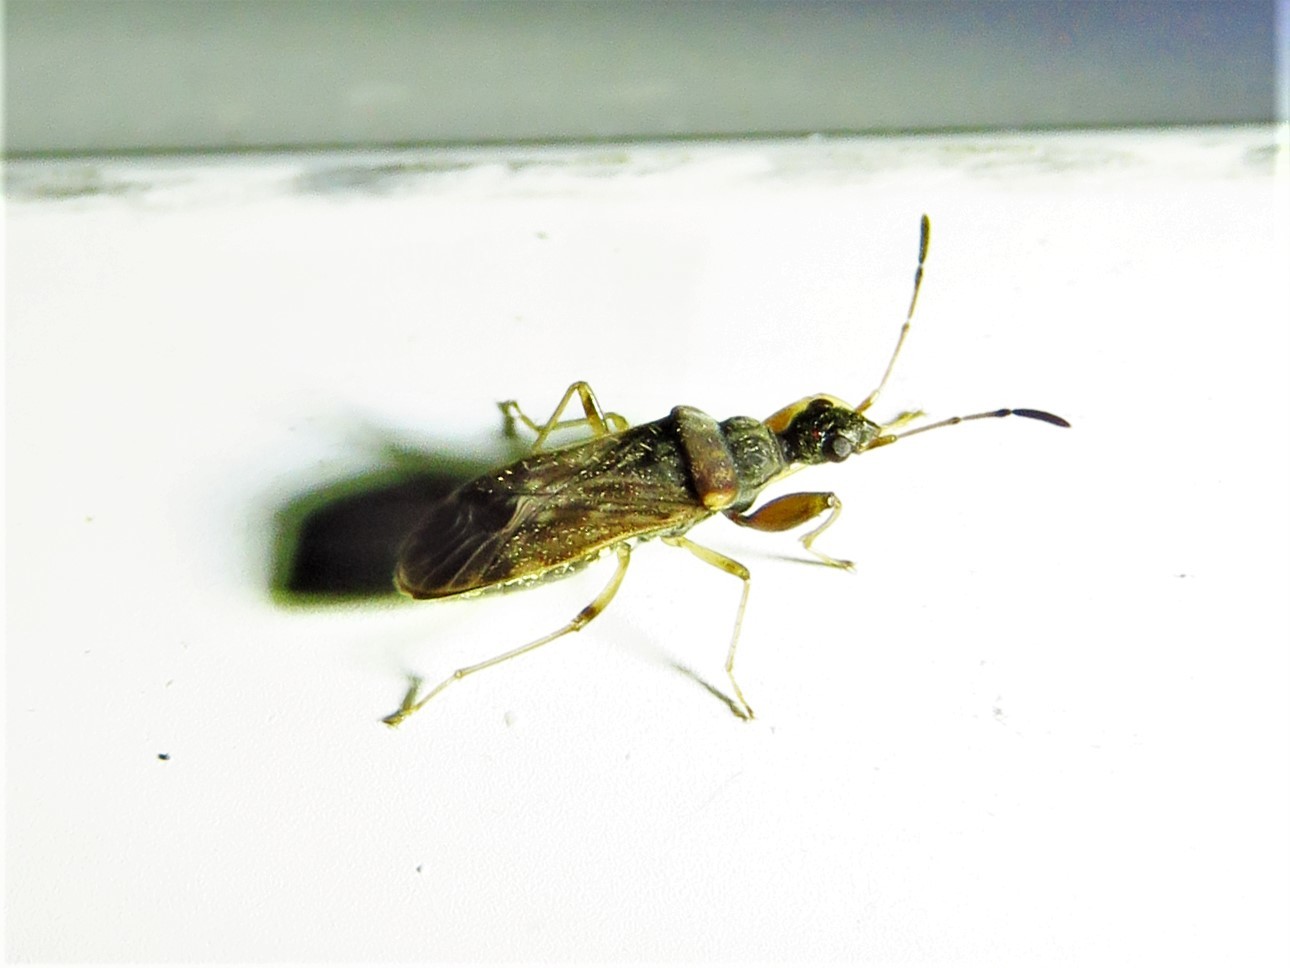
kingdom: Animalia
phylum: Arthropoda
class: Insecta
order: Hemiptera
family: Rhyparochromidae
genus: Heraeus
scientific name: Heraeus plebejus
